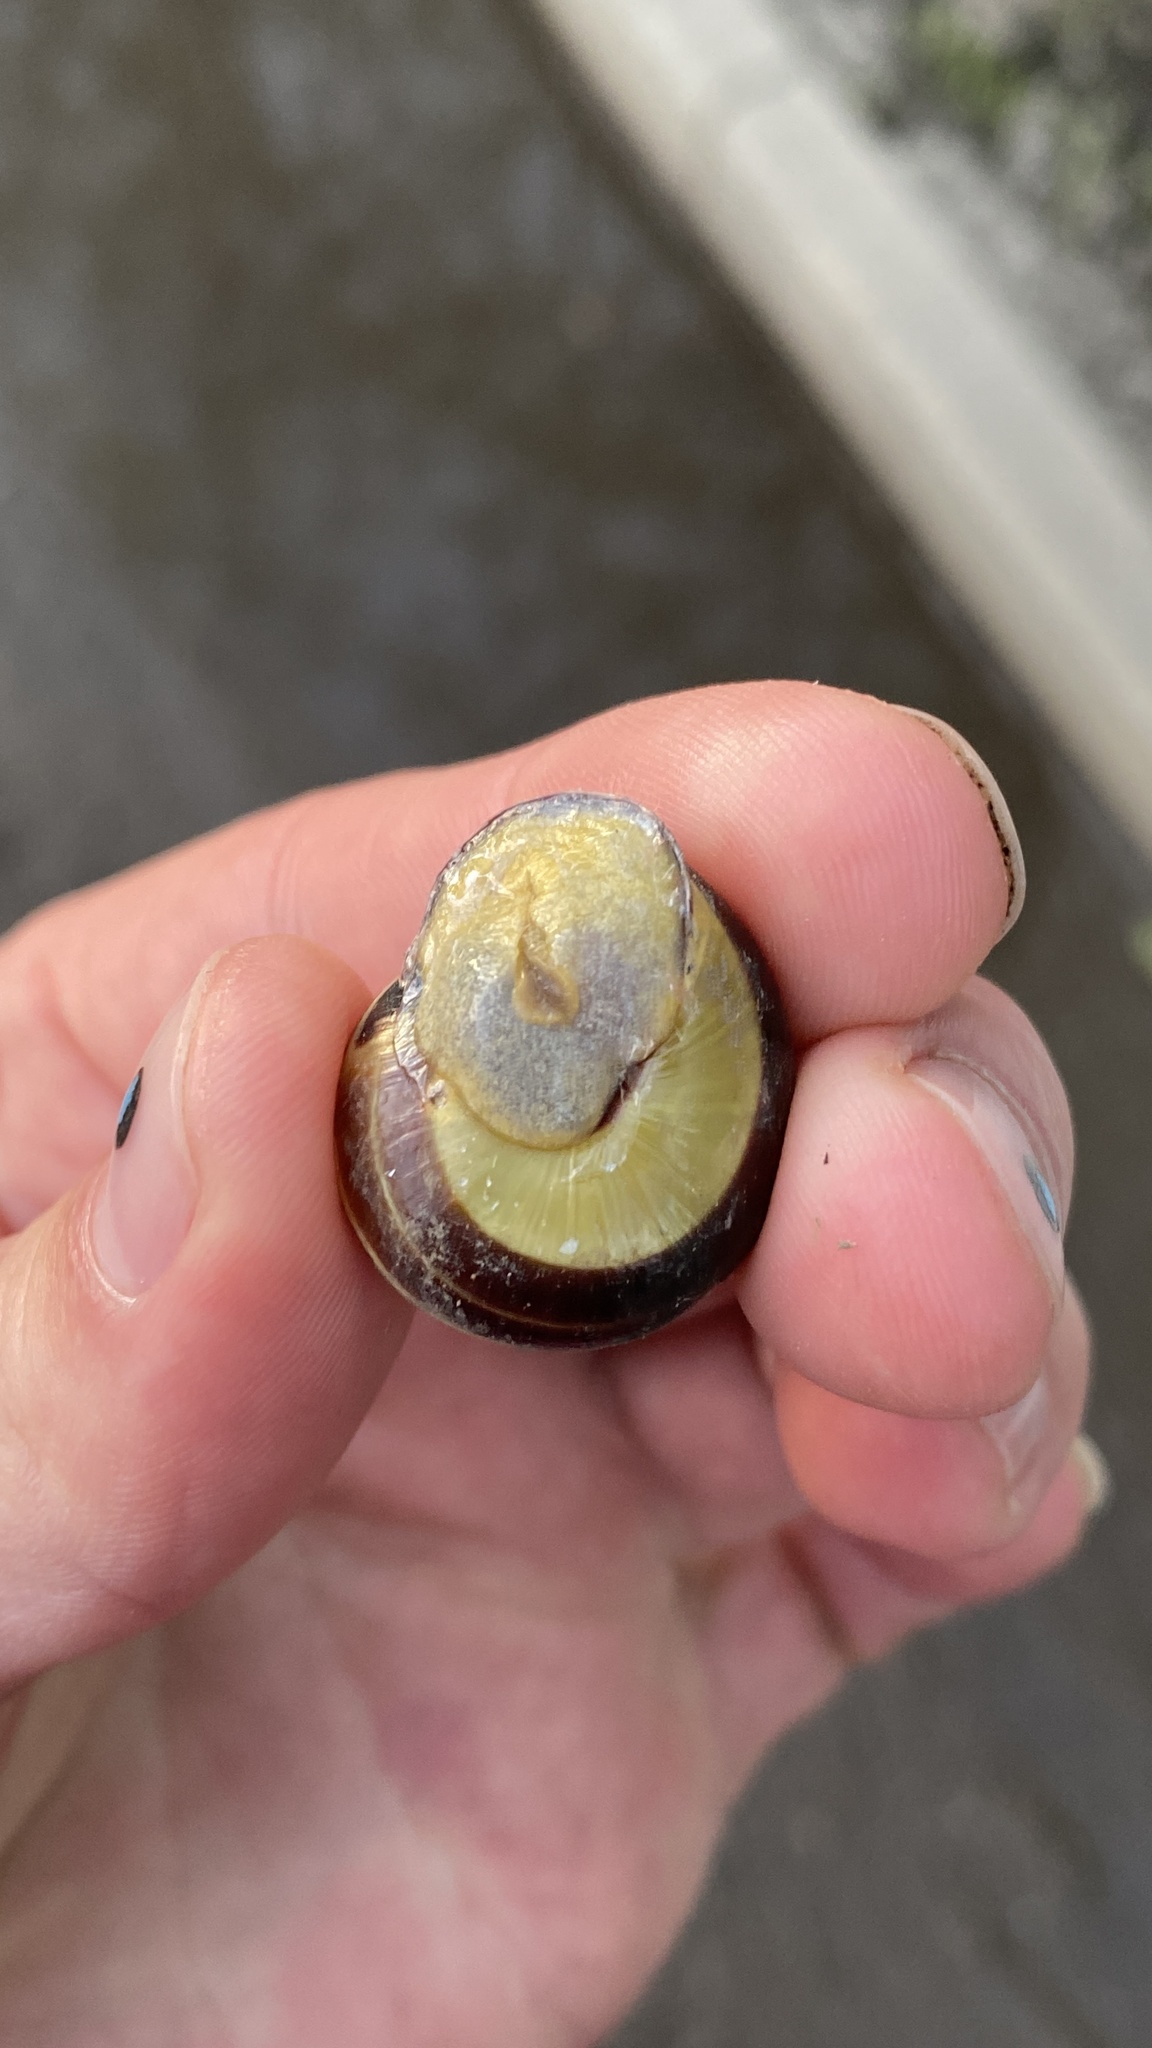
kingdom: Animalia
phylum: Mollusca
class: Gastropoda
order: Stylommatophora
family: Helicidae
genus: Cepaea
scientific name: Cepaea nemoralis
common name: Grovesnail
